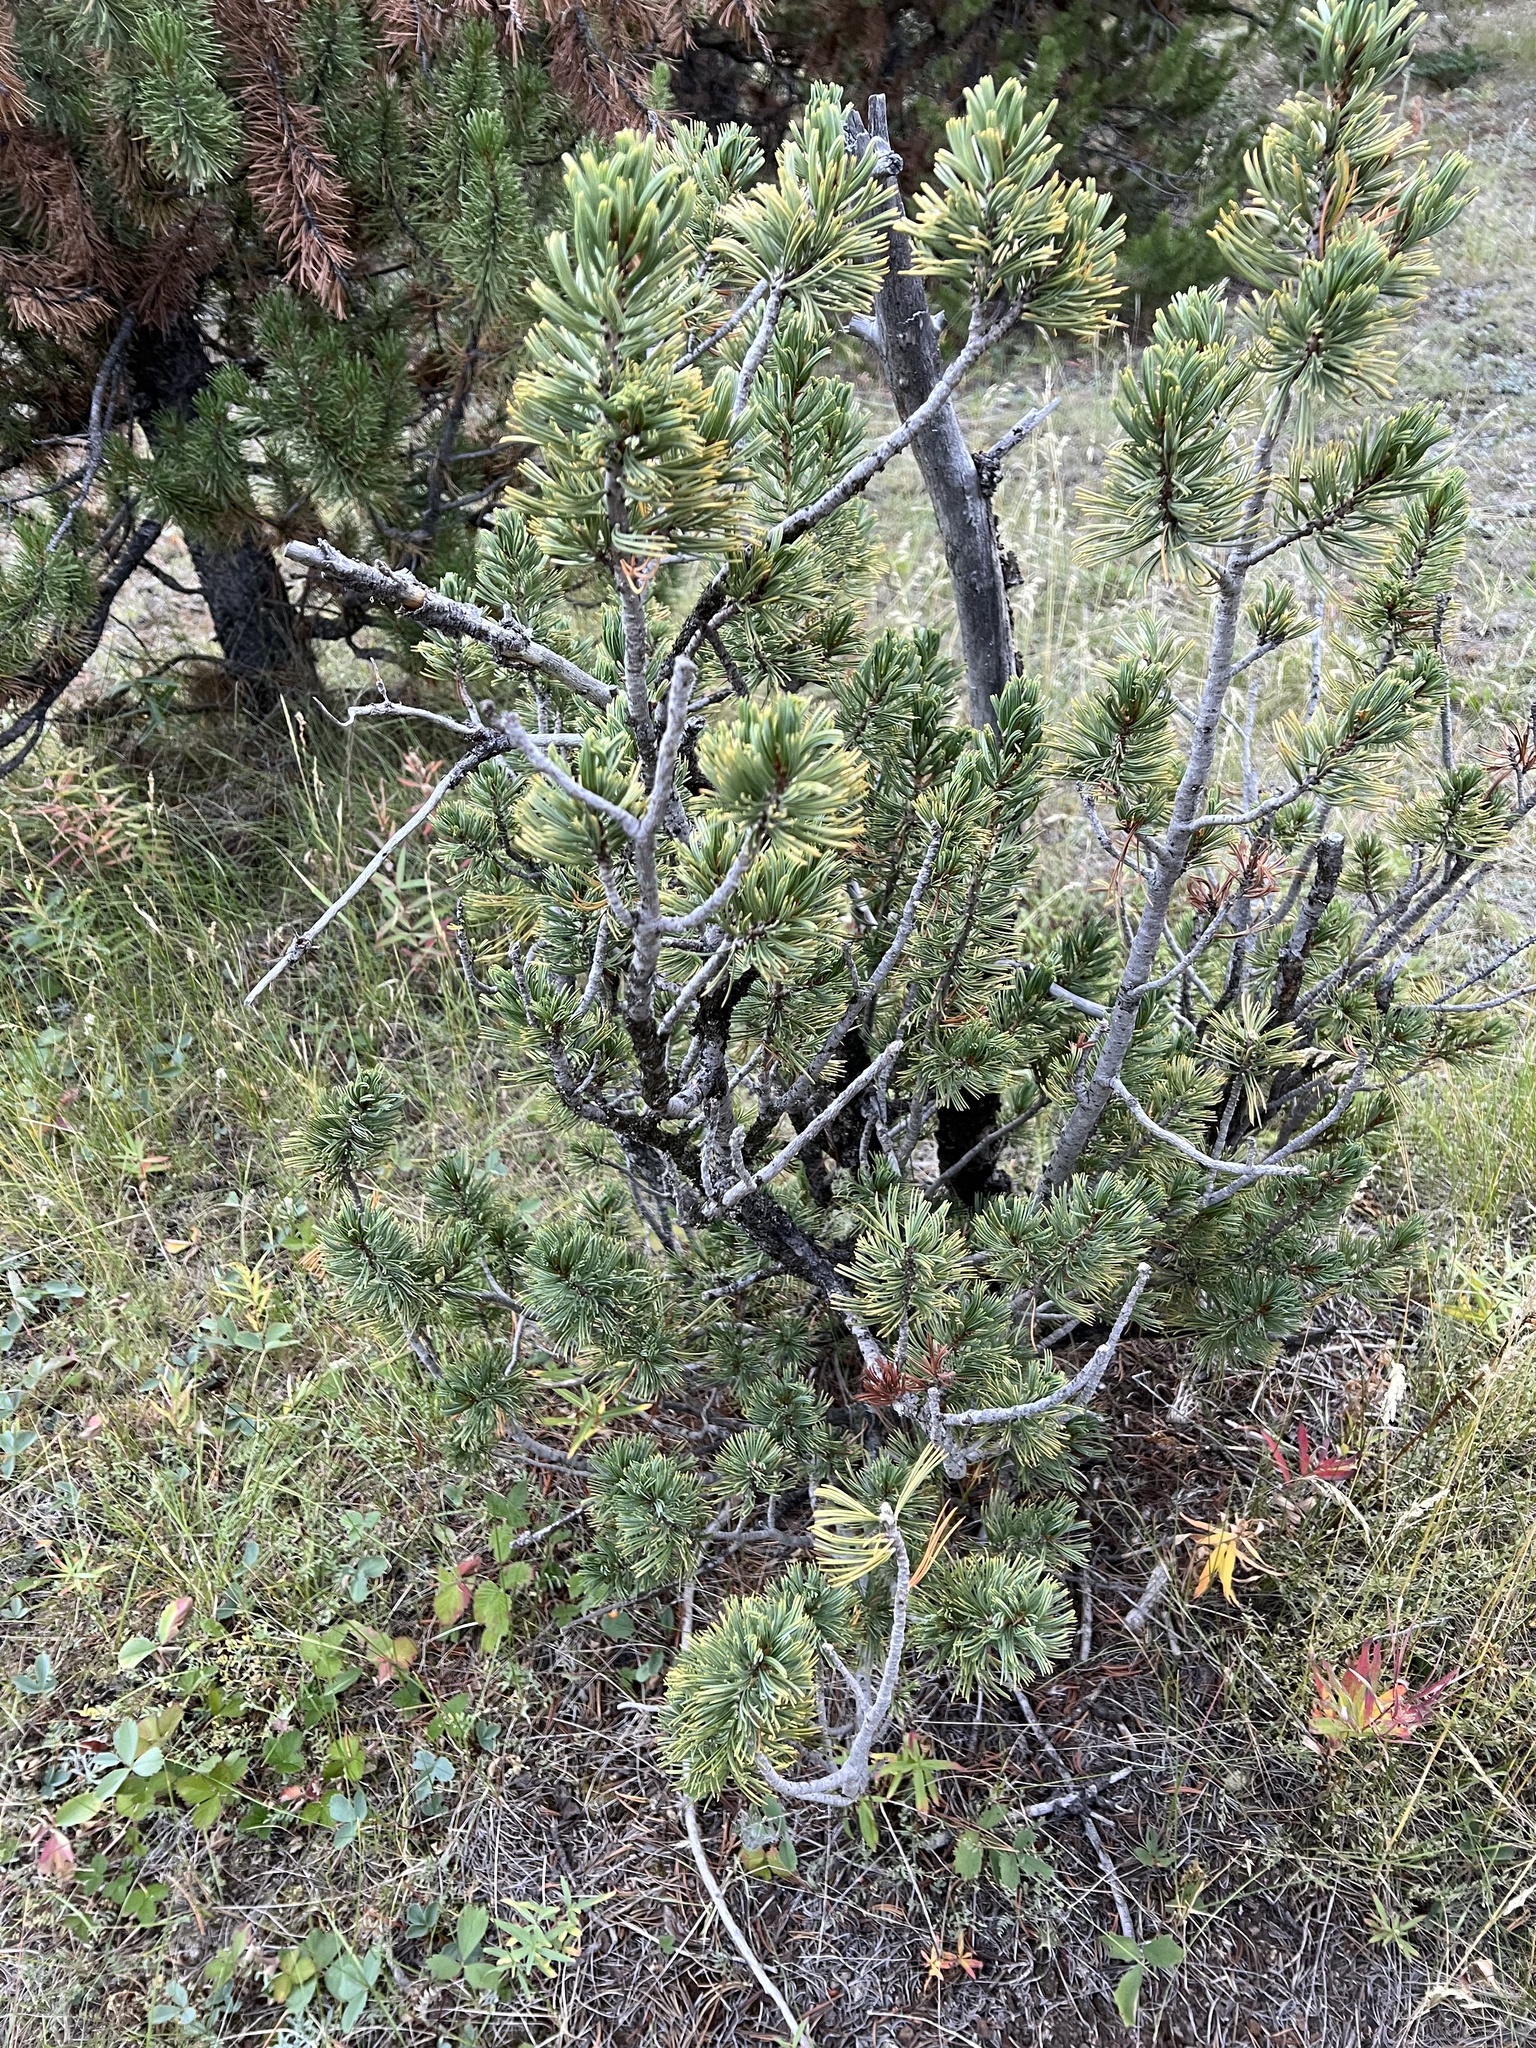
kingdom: Plantae
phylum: Tracheophyta
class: Pinopsida
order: Pinales
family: Pinaceae
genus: Pinus
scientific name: Pinus
